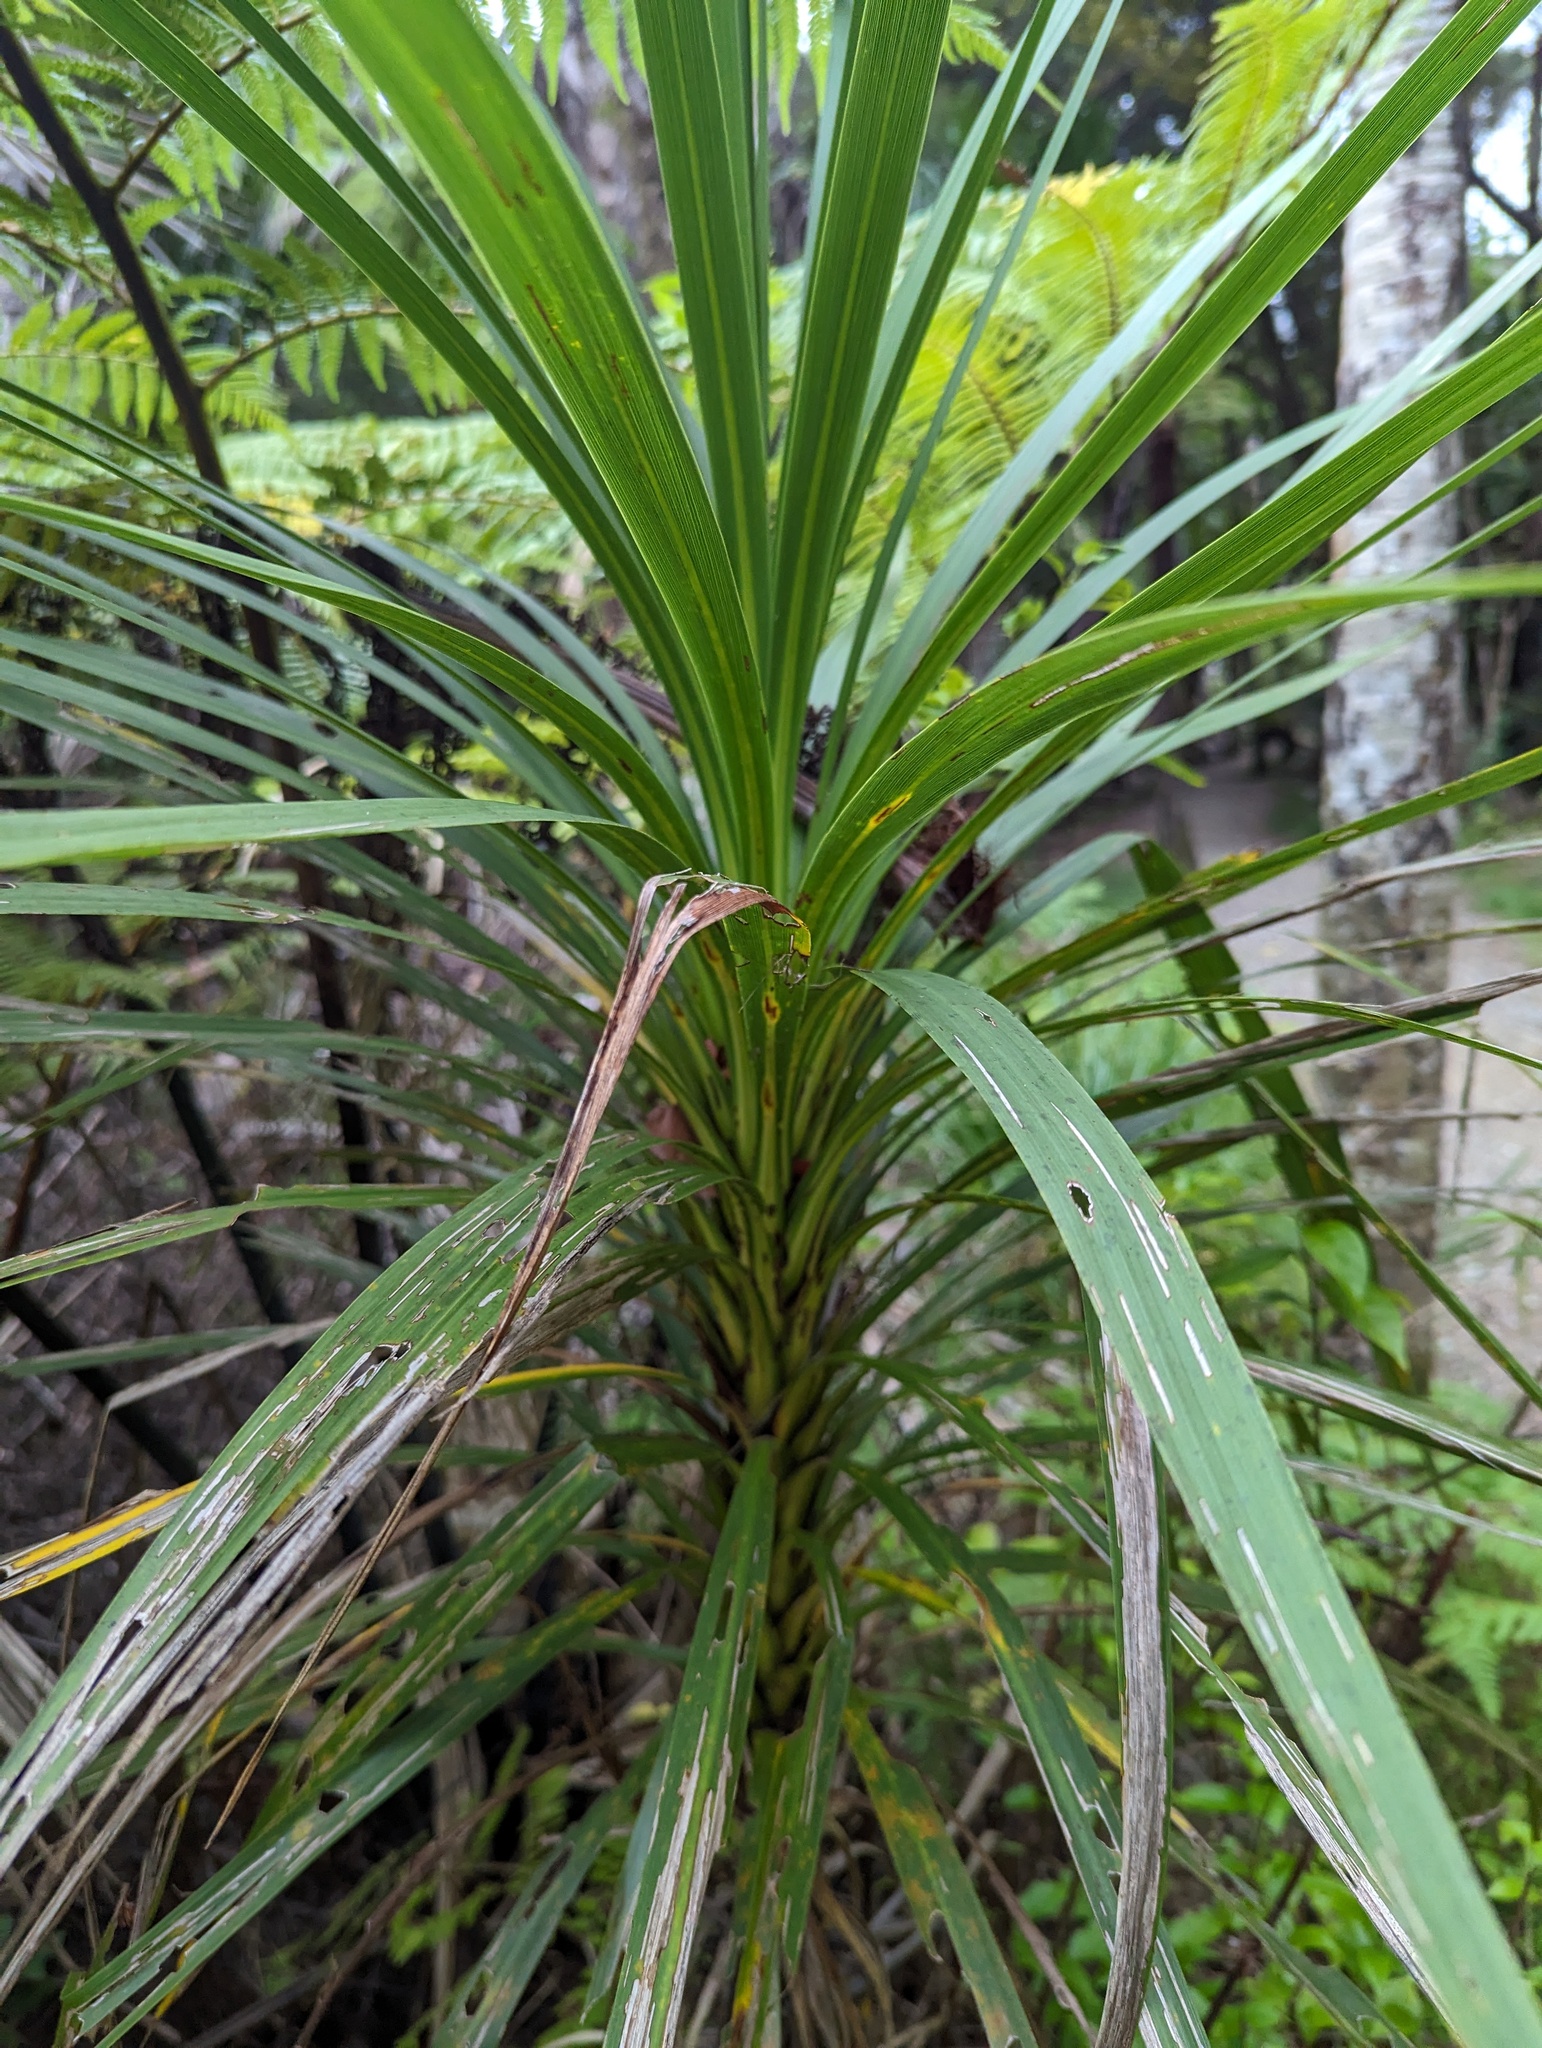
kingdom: Plantae
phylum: Tracheophyta
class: Liliopsida
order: Pandanales
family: Pandanaceae
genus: Freycinetia
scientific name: Freycinetia banksii
